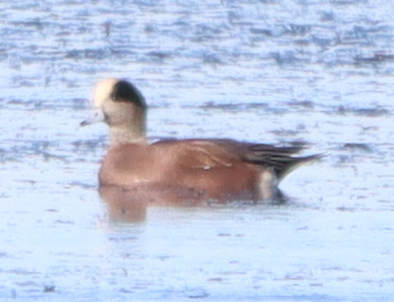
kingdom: Animalia
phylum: Chordata
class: Aves
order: Anseriformes
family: Anatidae
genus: Mareca
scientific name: Mareca americana
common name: American wigeon
